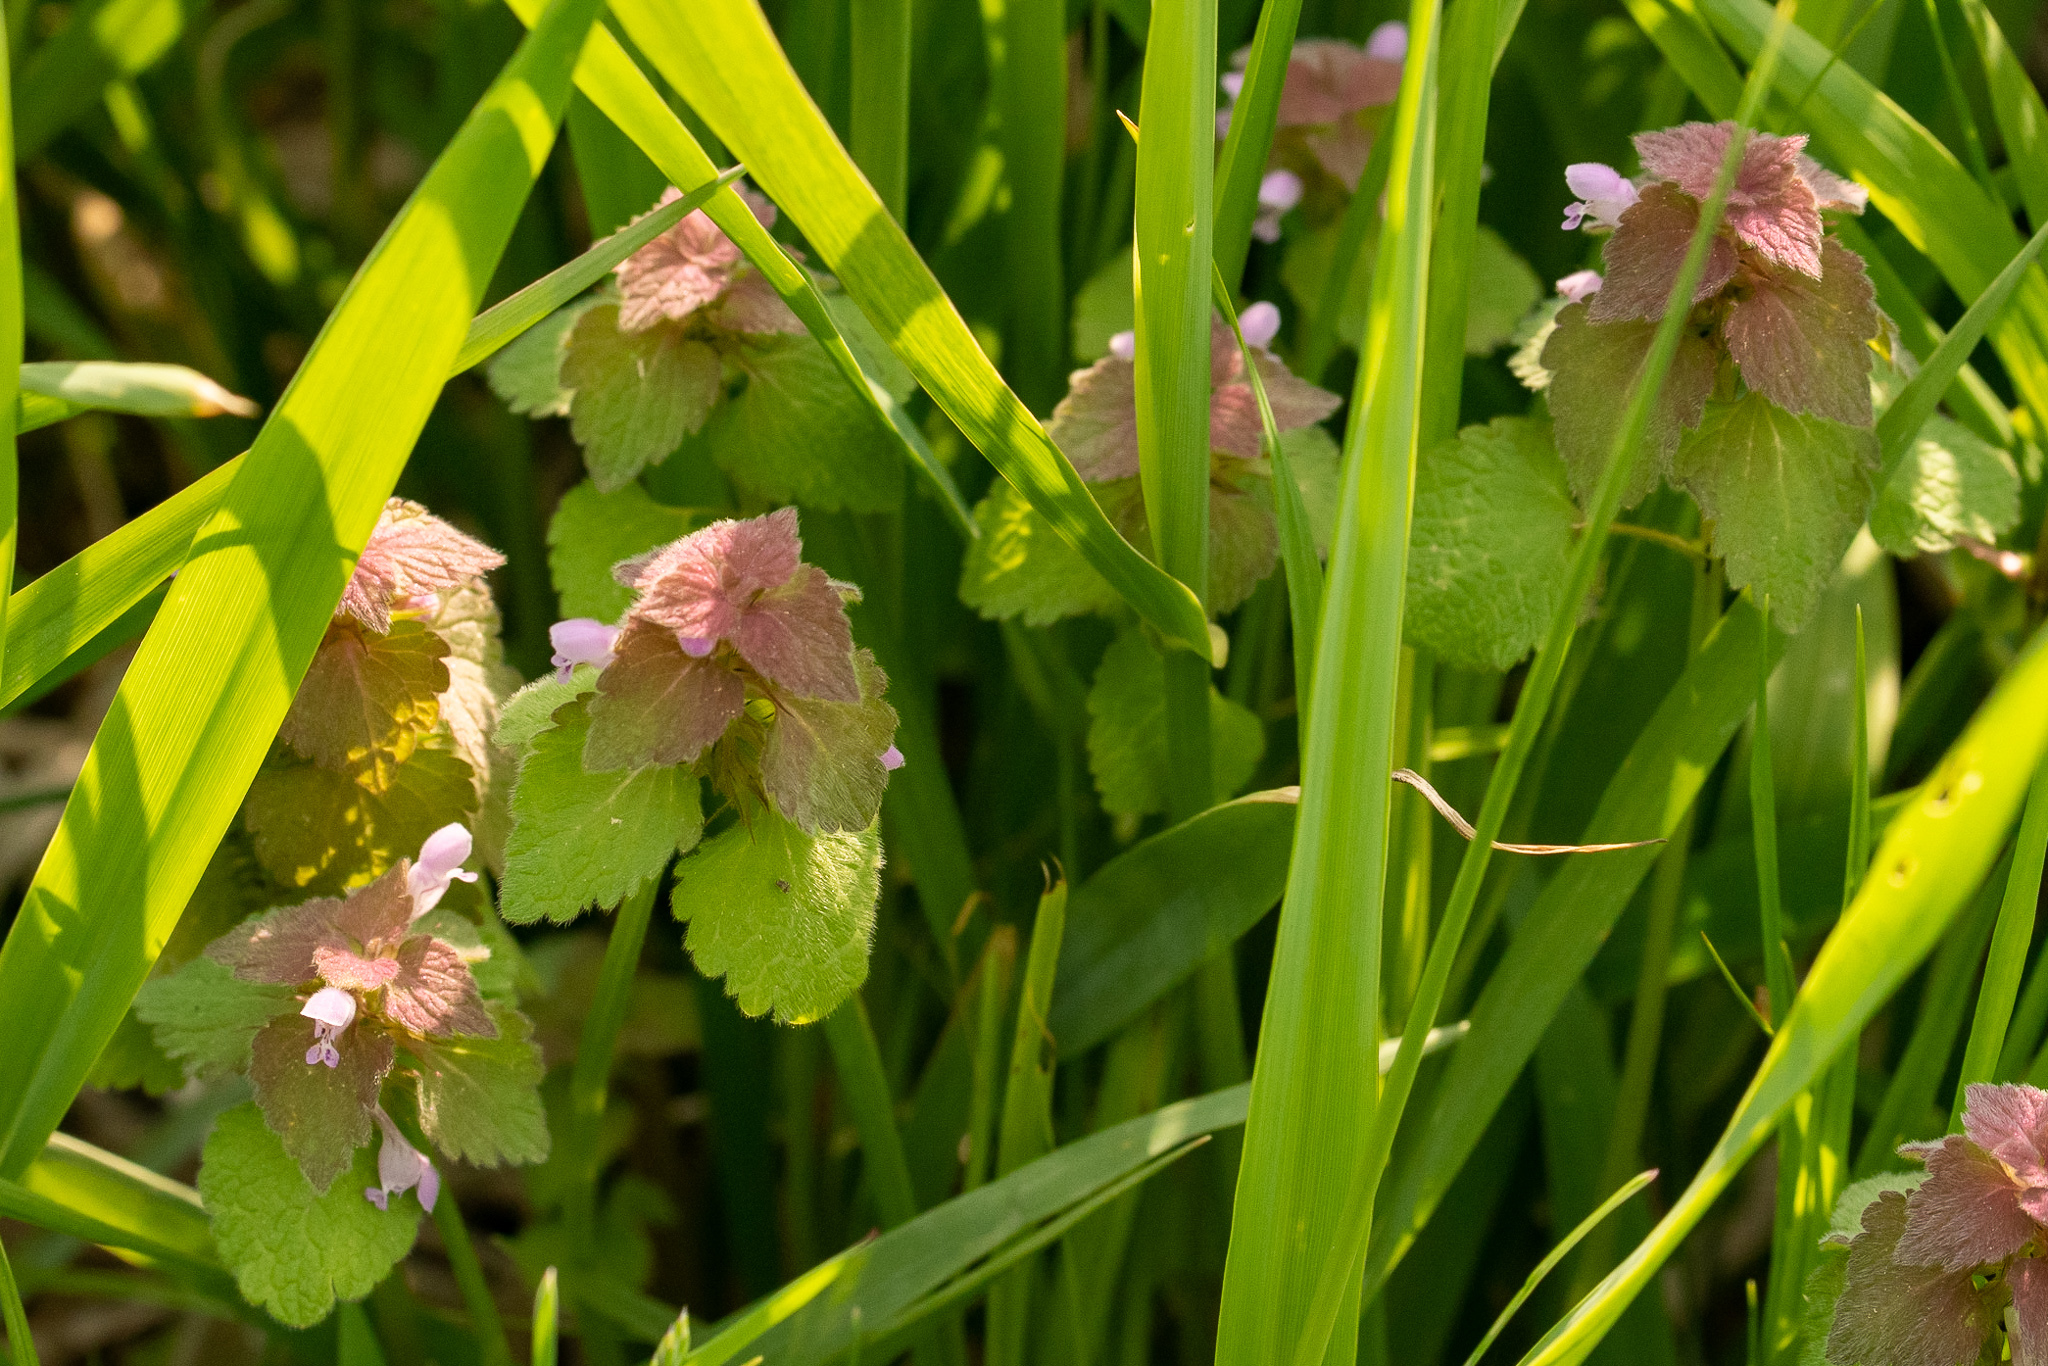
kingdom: Plantae
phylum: Tracheophyta
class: Magnoliopsida
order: Lamiales
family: Lamiaceae
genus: Lamium
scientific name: Lamium purpureum
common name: Red dead-nettle
